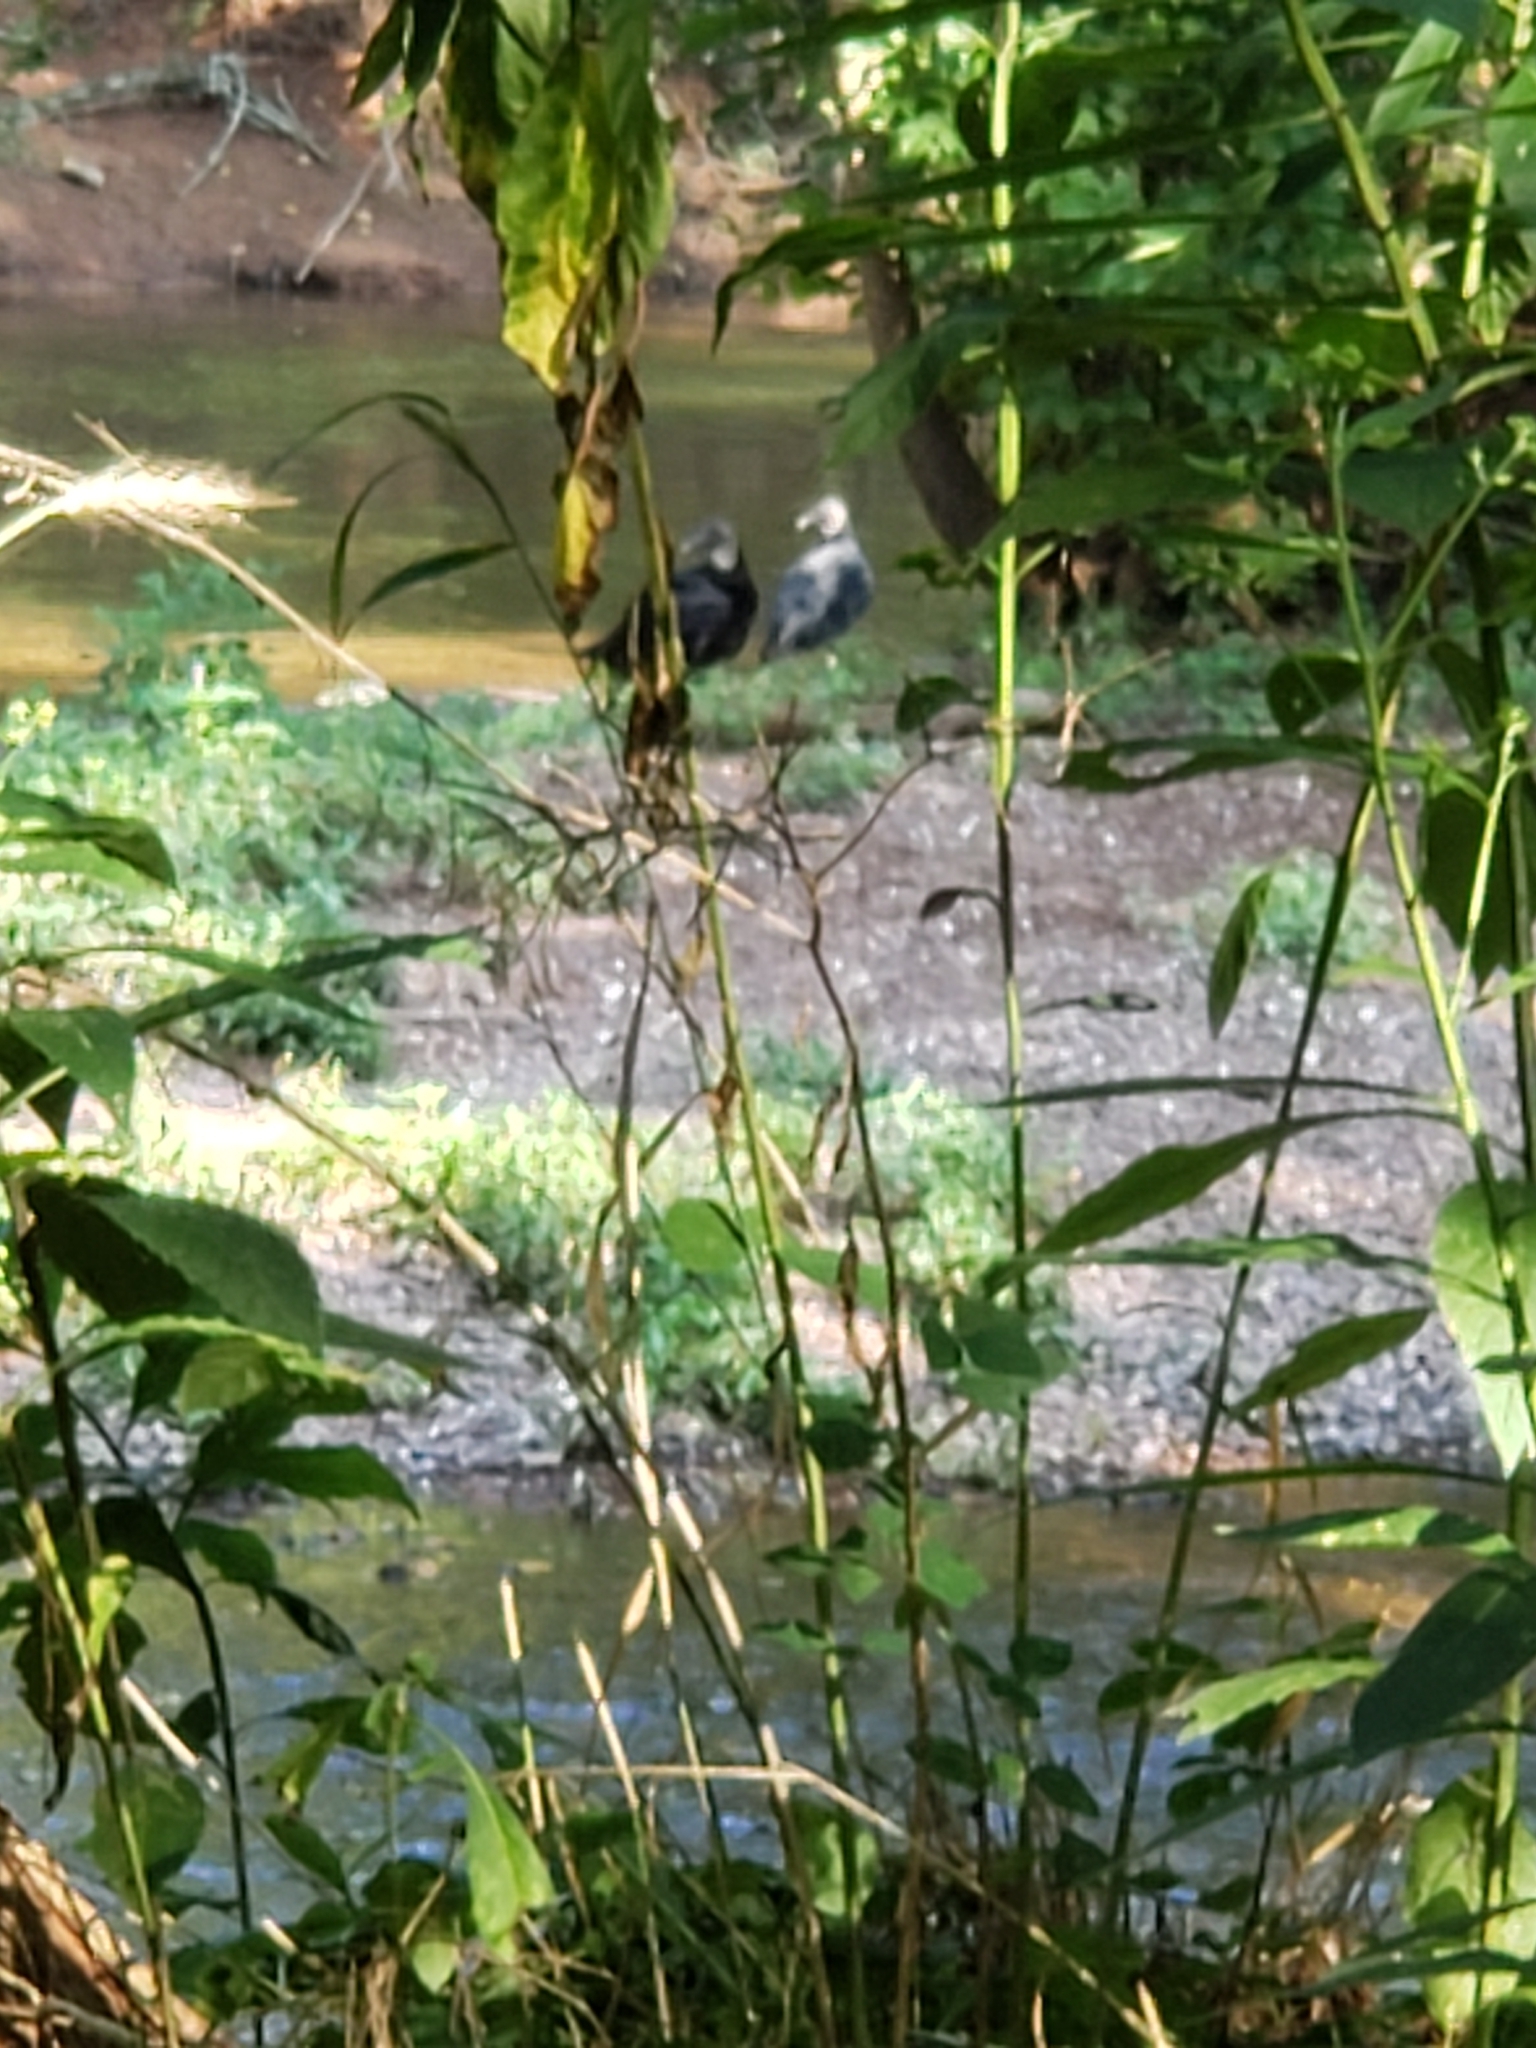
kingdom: Animalia
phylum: Chordata
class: Aves
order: Accipitriformes
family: Cathartidae
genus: Cathartes
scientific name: Cathartes aura
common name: Turkey vulture
